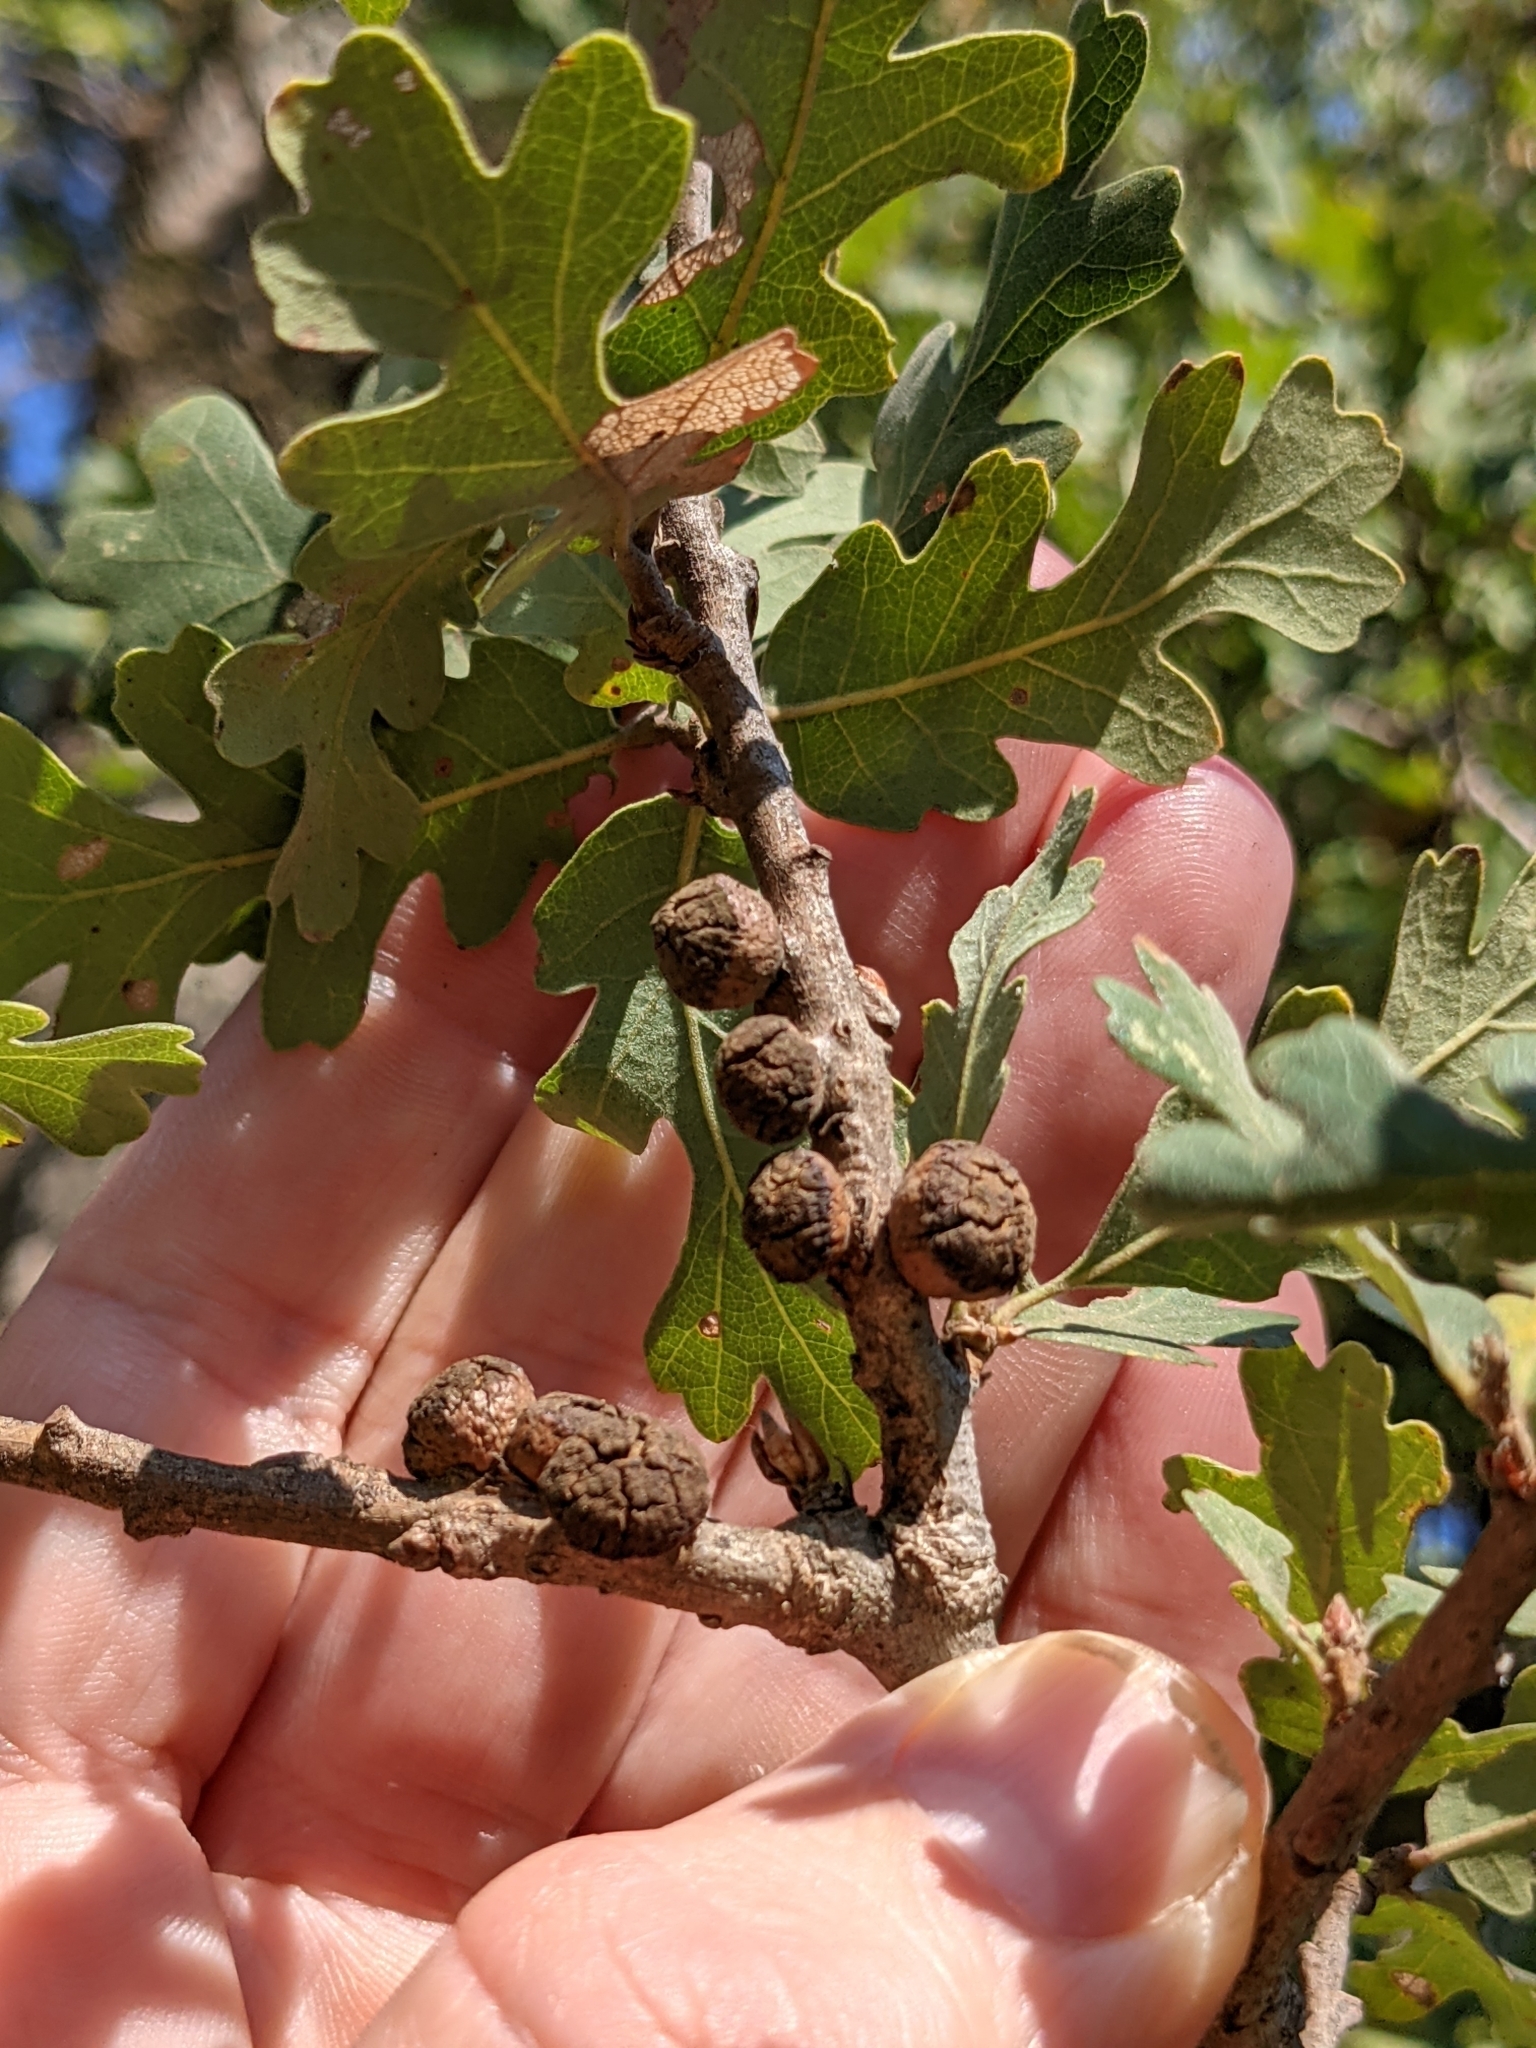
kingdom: Plantae
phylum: Tracheophyta
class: Magnoliopsida
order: Fagales
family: Fagaceae
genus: Quercus
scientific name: Quercus lobata
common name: Valley oak
